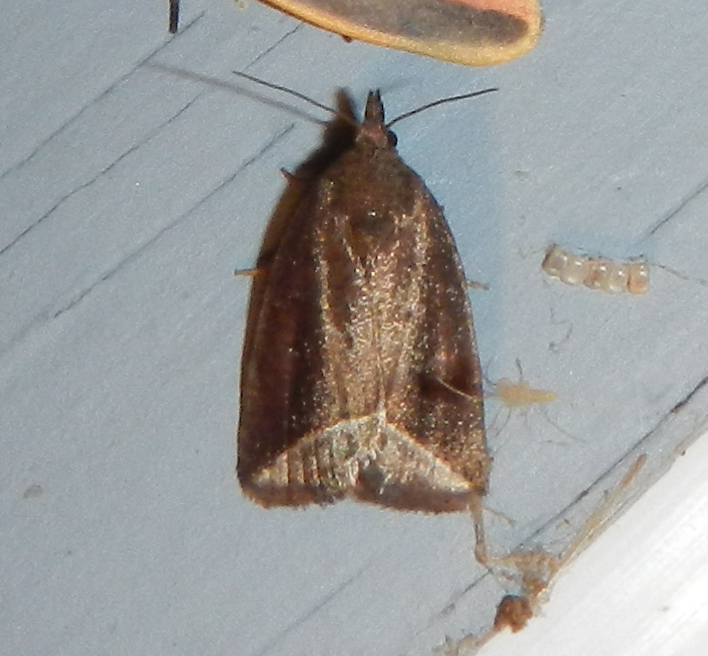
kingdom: Animalia
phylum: Arthropoda
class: Insecta
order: Lepidoptera
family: Erebidae
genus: Capis
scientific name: Capis curvata
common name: Curved halter moth
